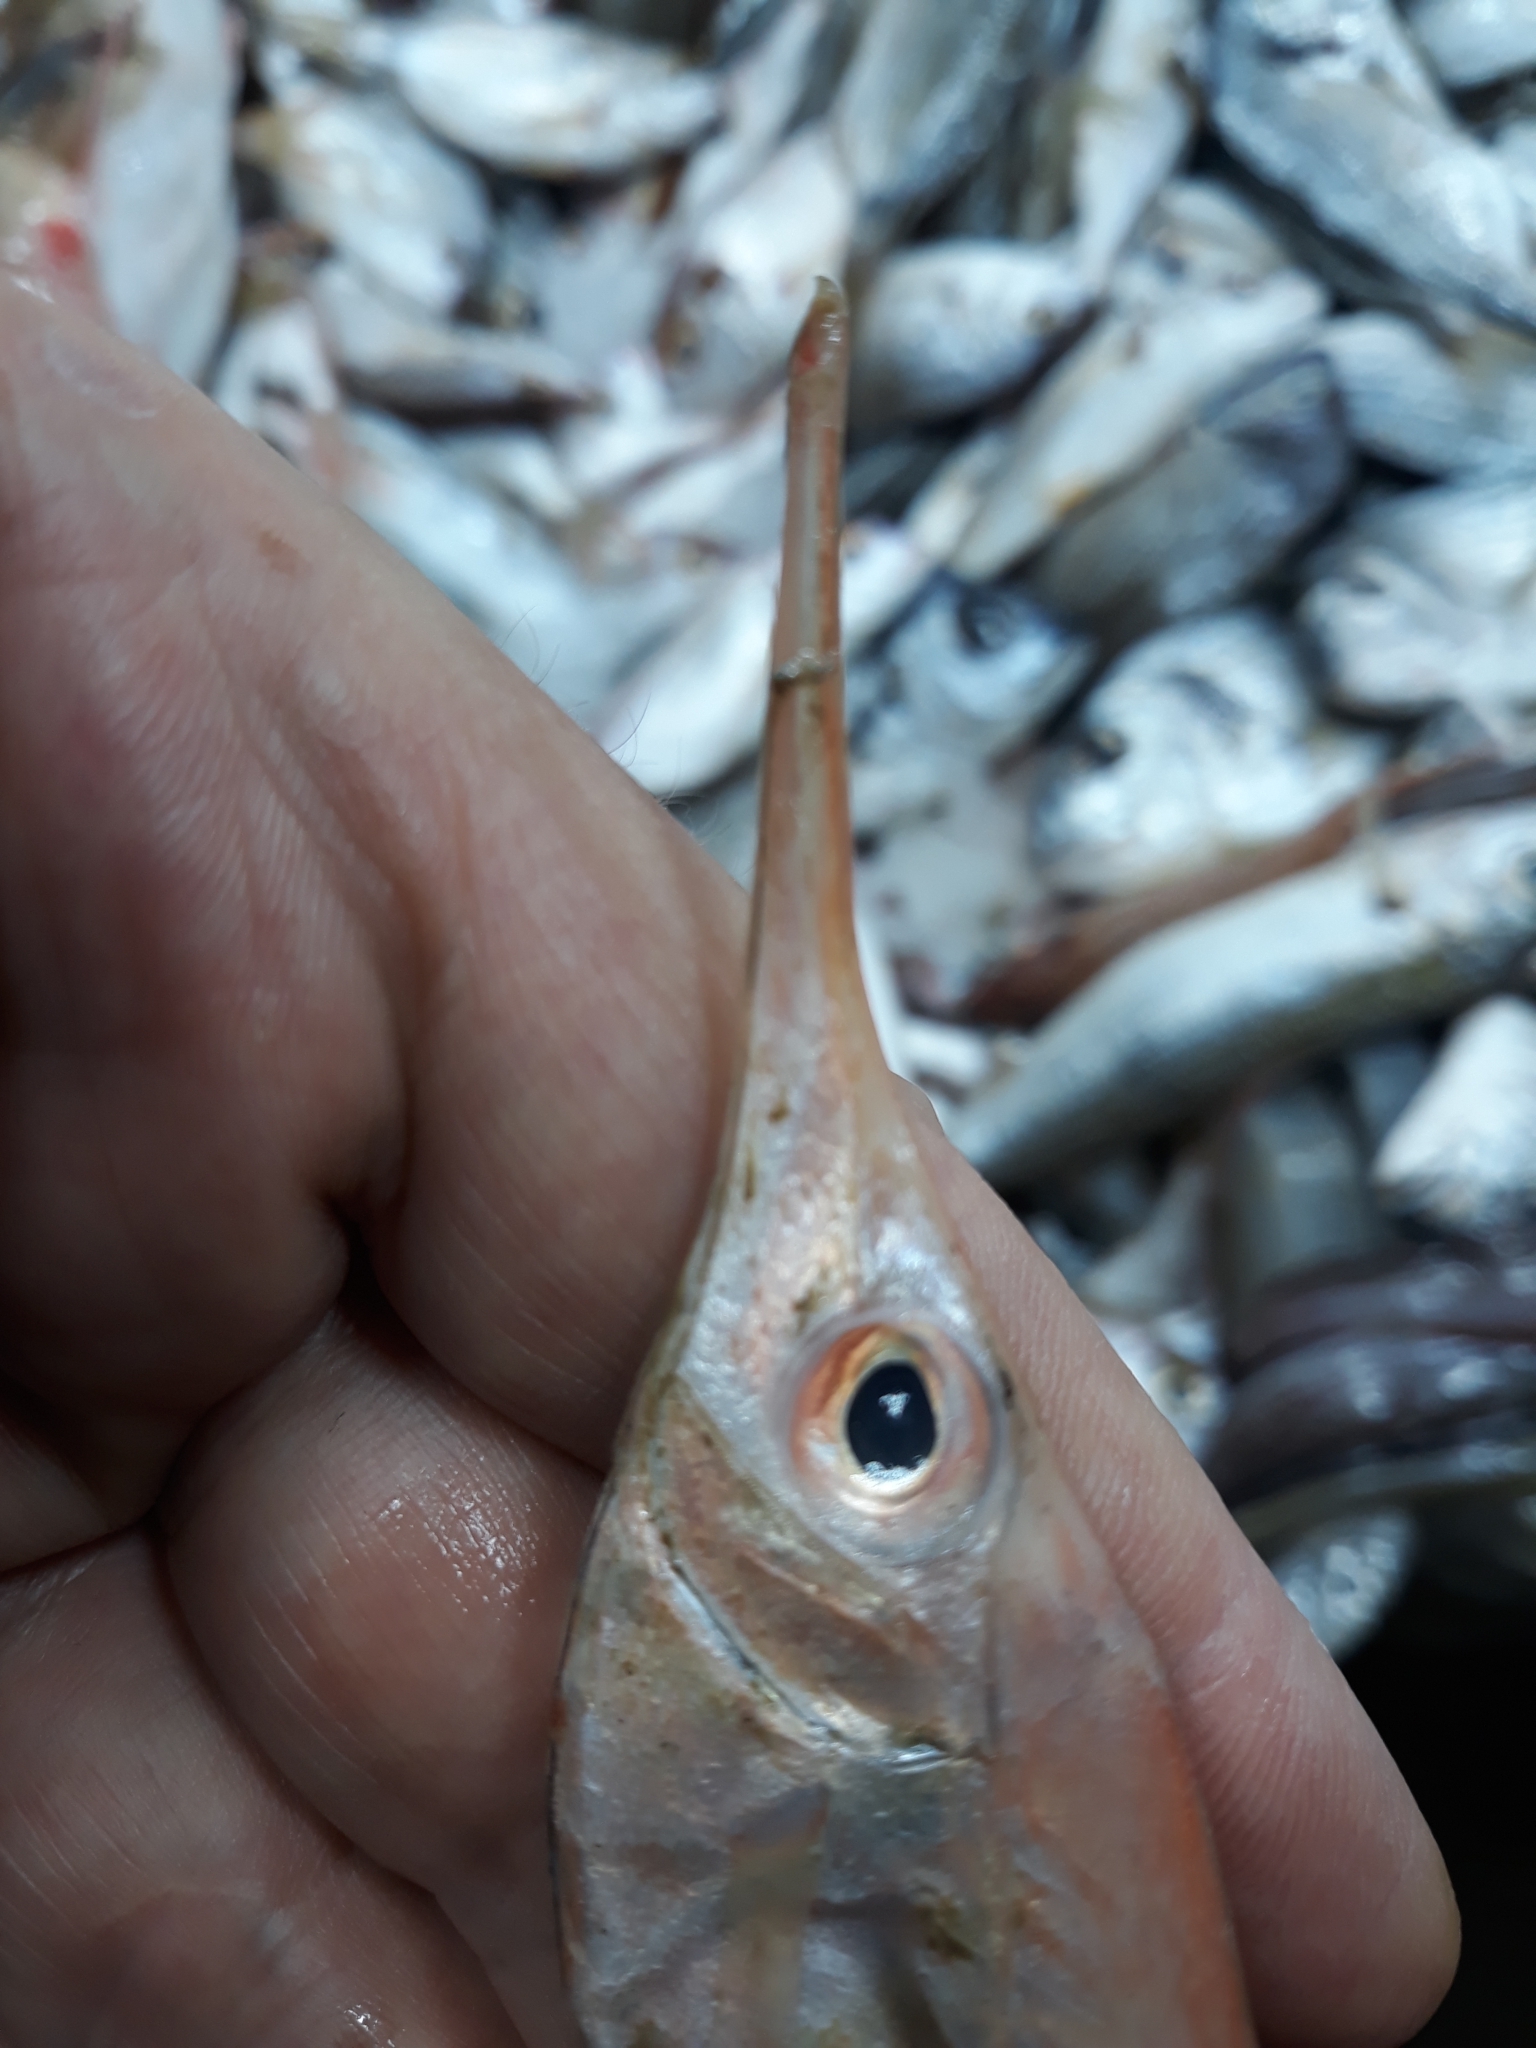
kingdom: Animalia
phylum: Chordata
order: Syngnathiformes
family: Centriscidae
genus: Macroramphosus
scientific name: Macroramphosus scolopax
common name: Snipe-fish
